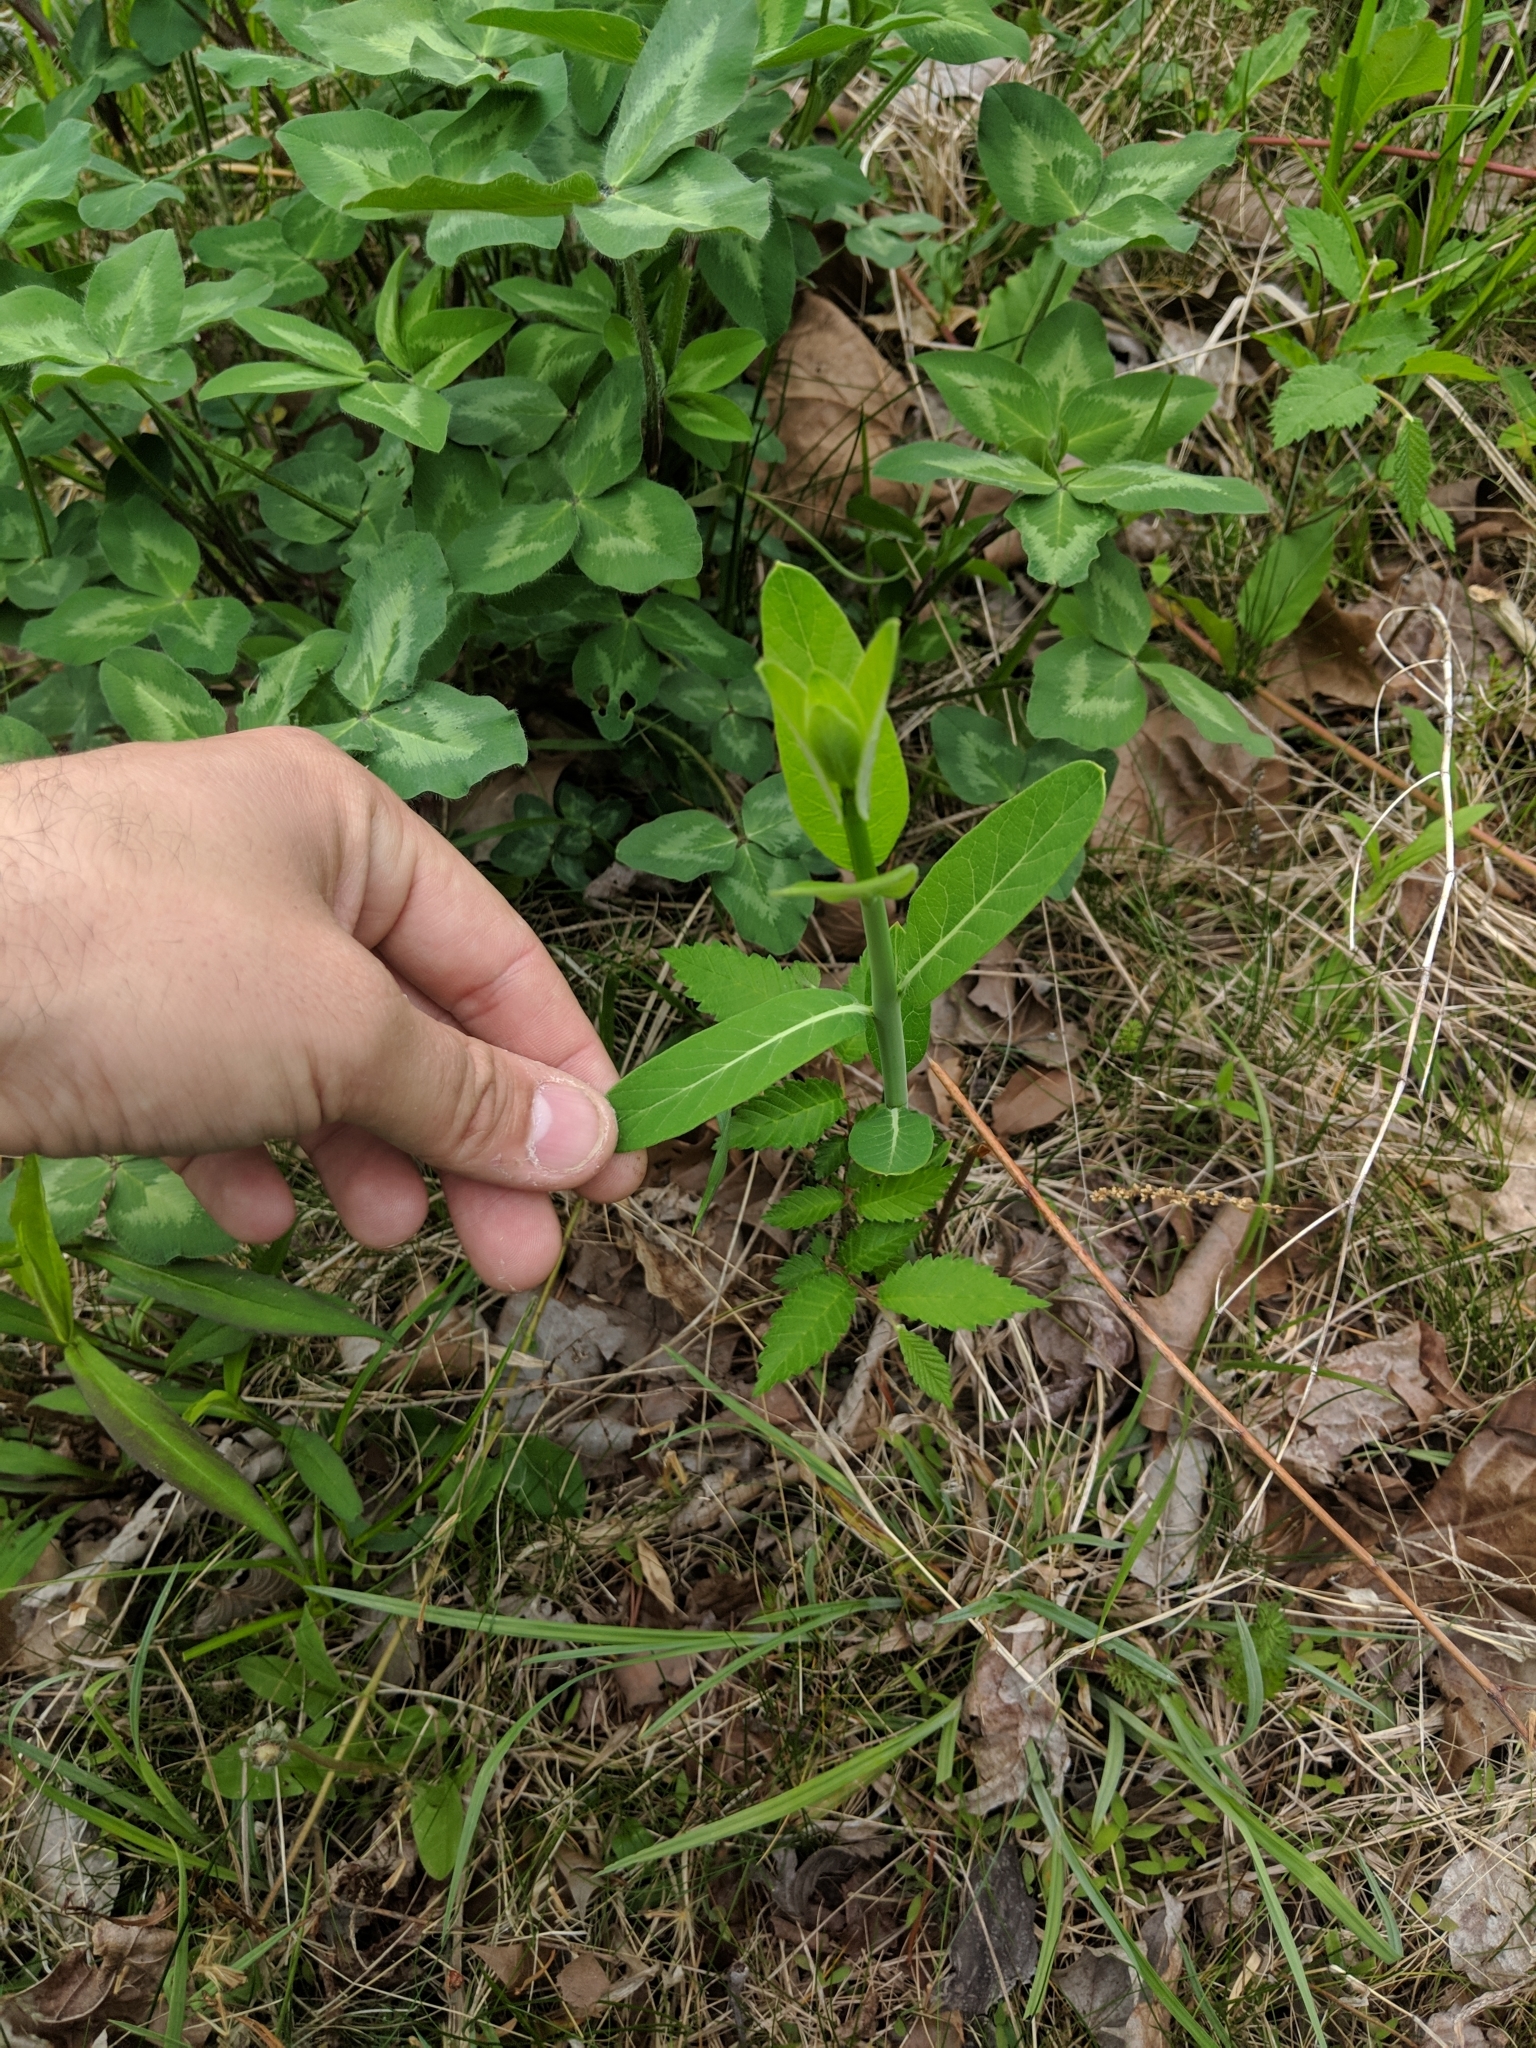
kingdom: Plantae
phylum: Tracheophyta
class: Magnoliopsida
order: Gentianales
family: Apocynaceae
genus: Apocynum
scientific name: Apocynum cannabinum
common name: Hemp dogbane
